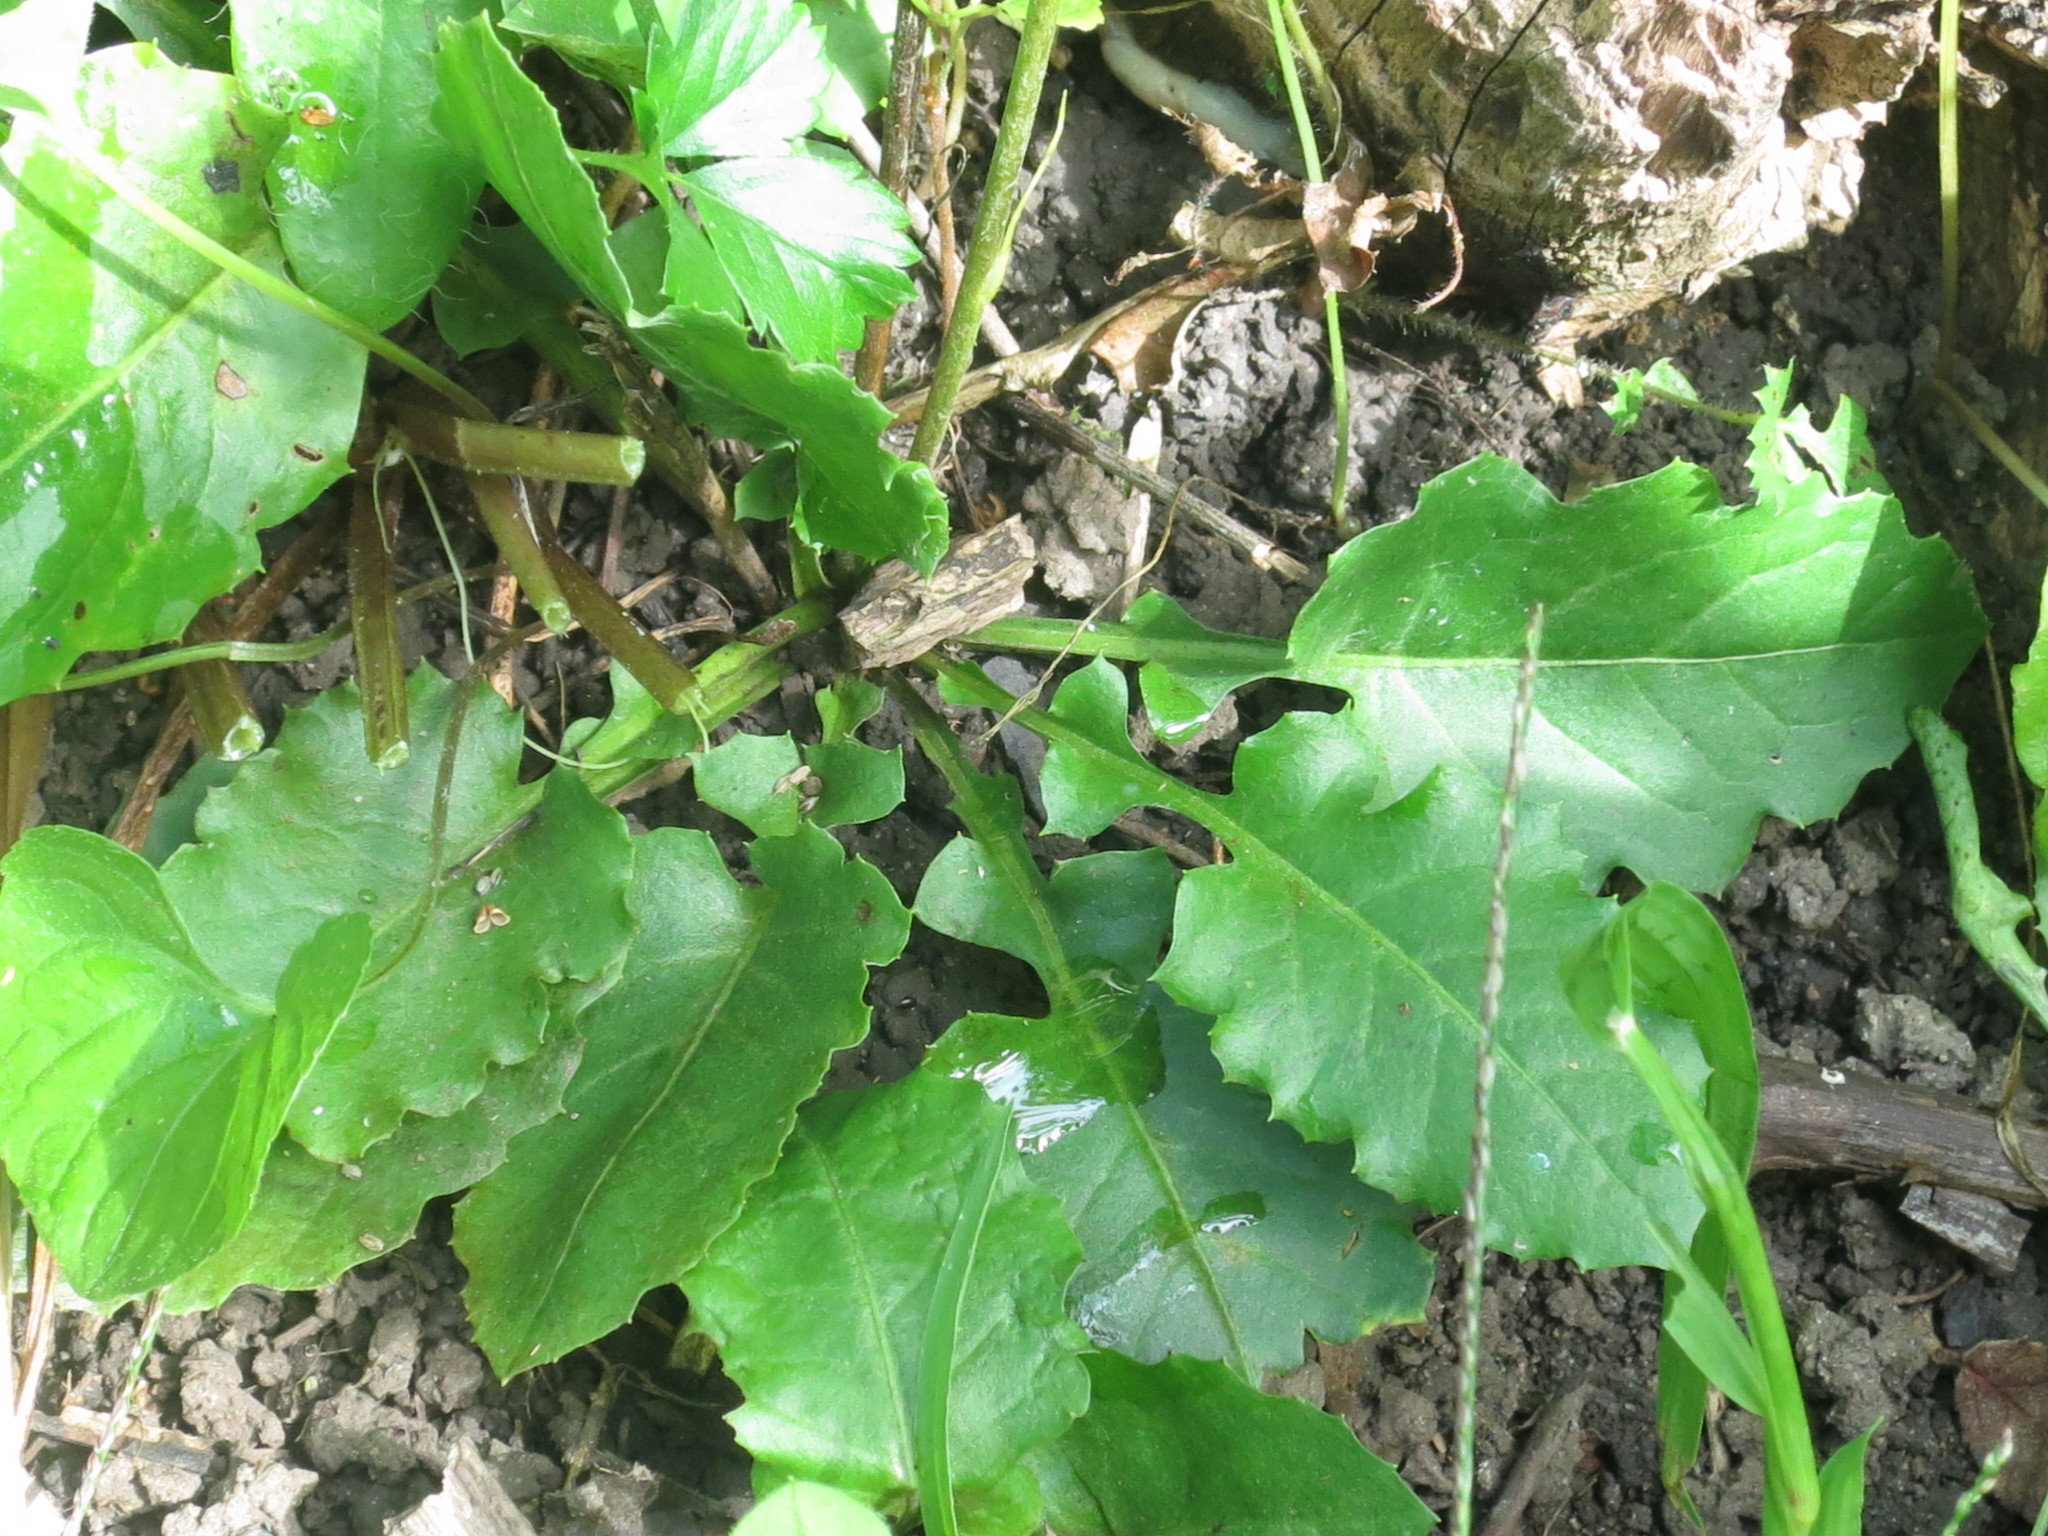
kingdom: Plantae
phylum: Tracheophyta
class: Magnoliopsida
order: Asterales
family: Asteraceae
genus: Leibnitzia
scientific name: Leibnitzia anandria
